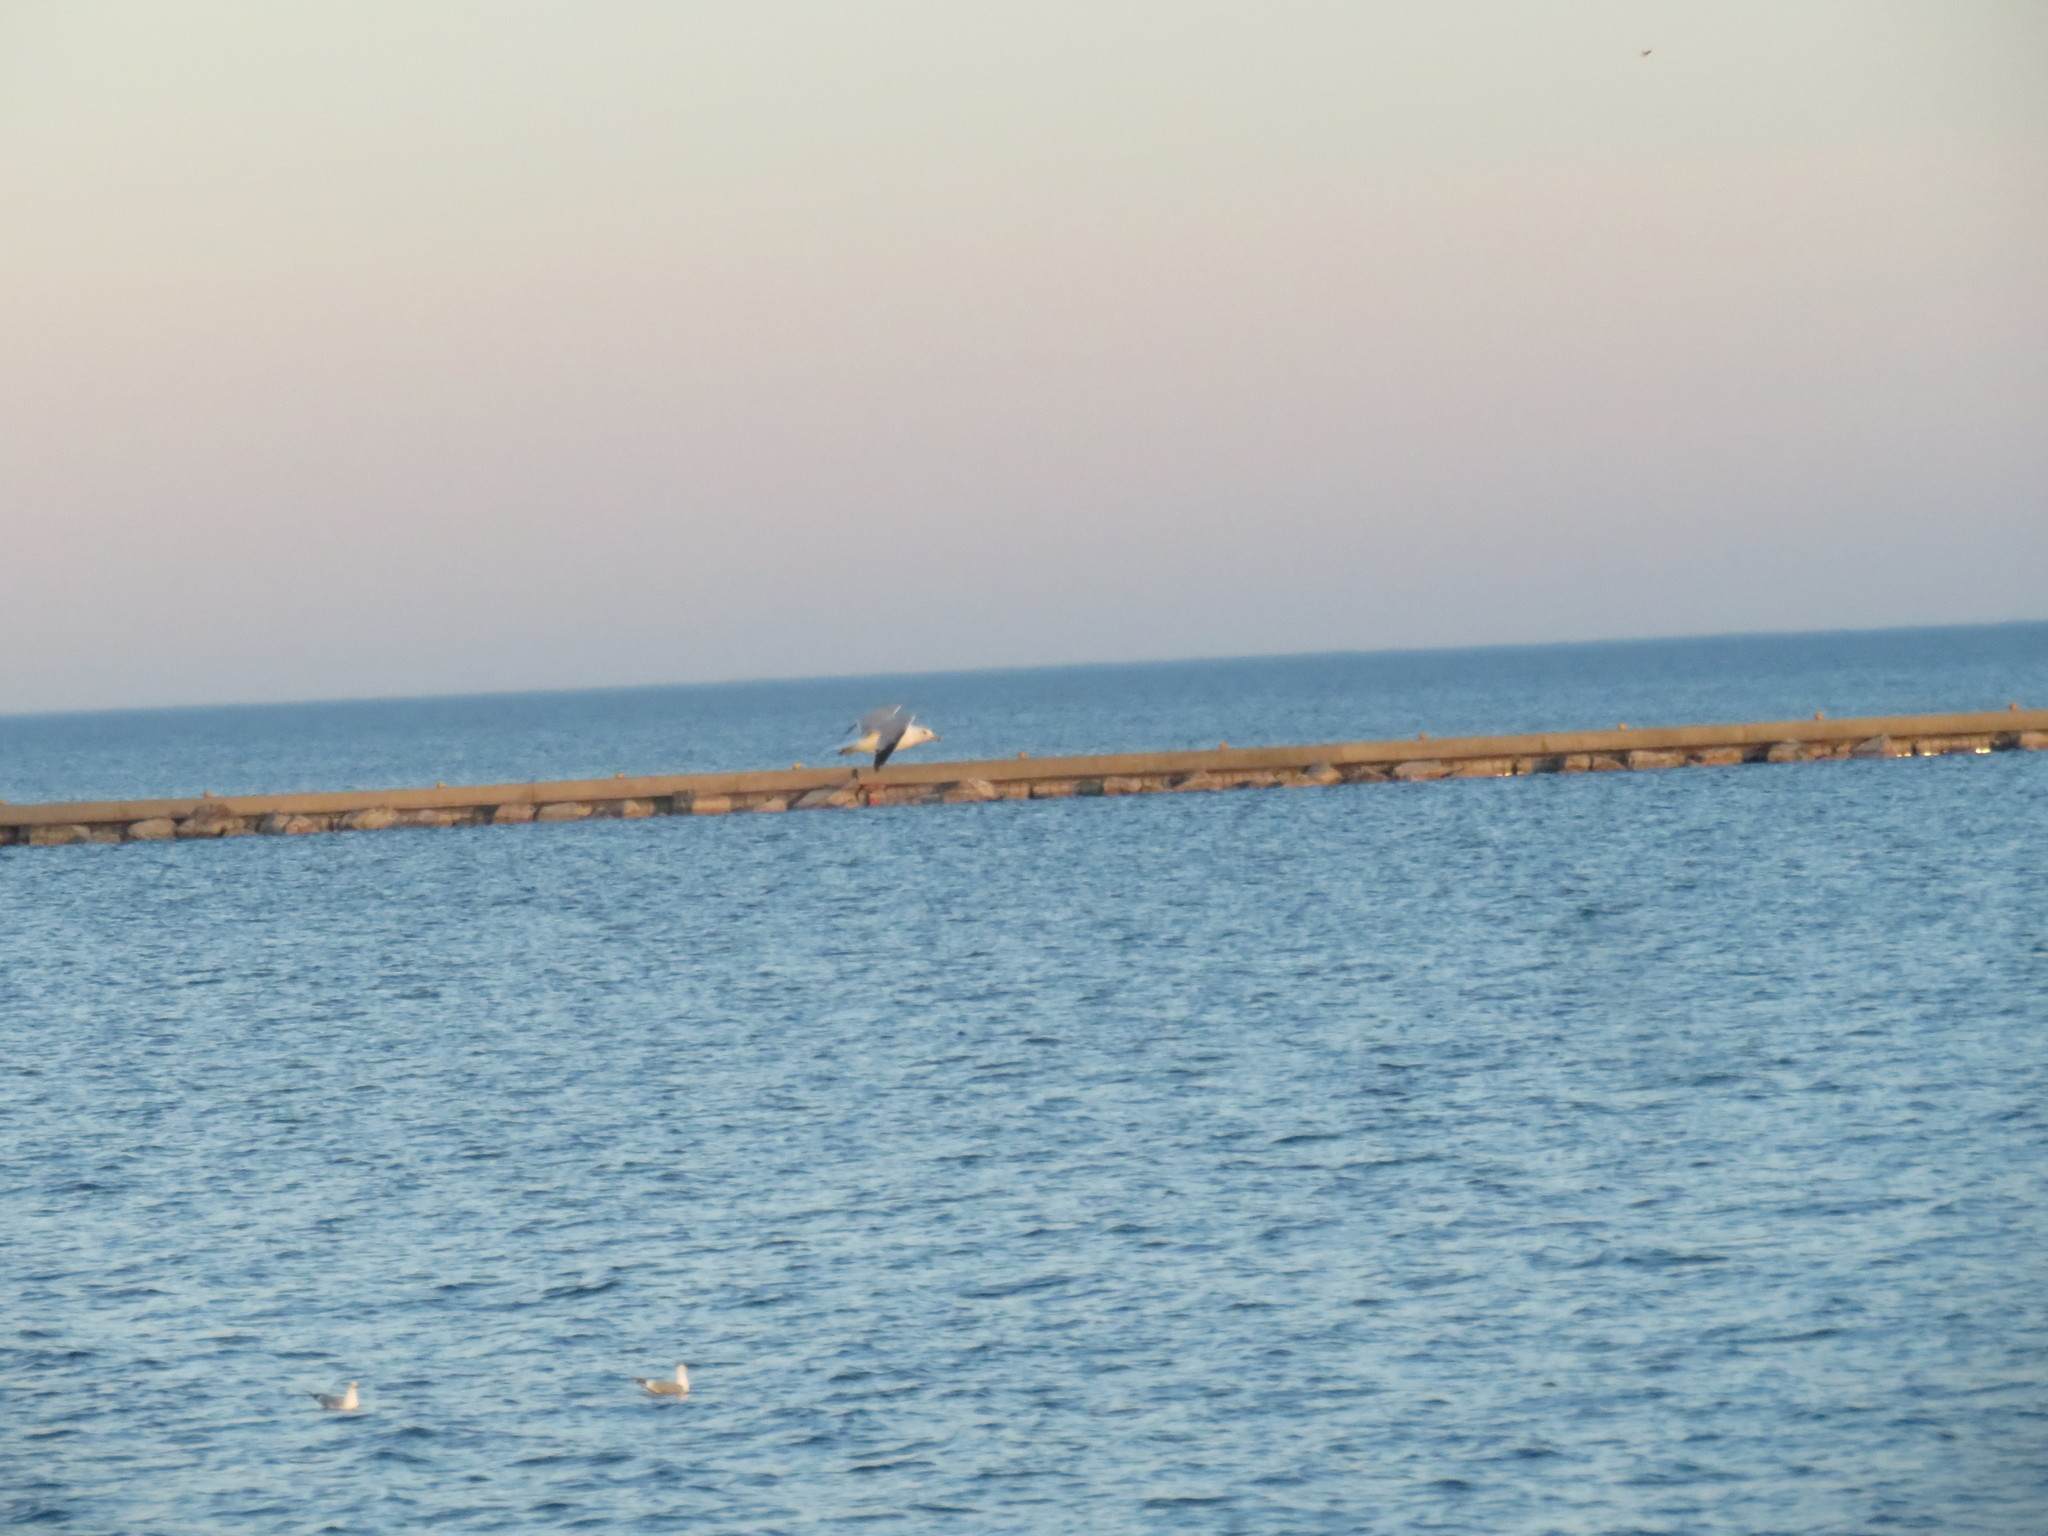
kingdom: Animalia
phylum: Chordata
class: Aves
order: Charadriiformes
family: Laridae
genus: Larus
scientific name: Larus delawarensis
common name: Ring-billed gull
